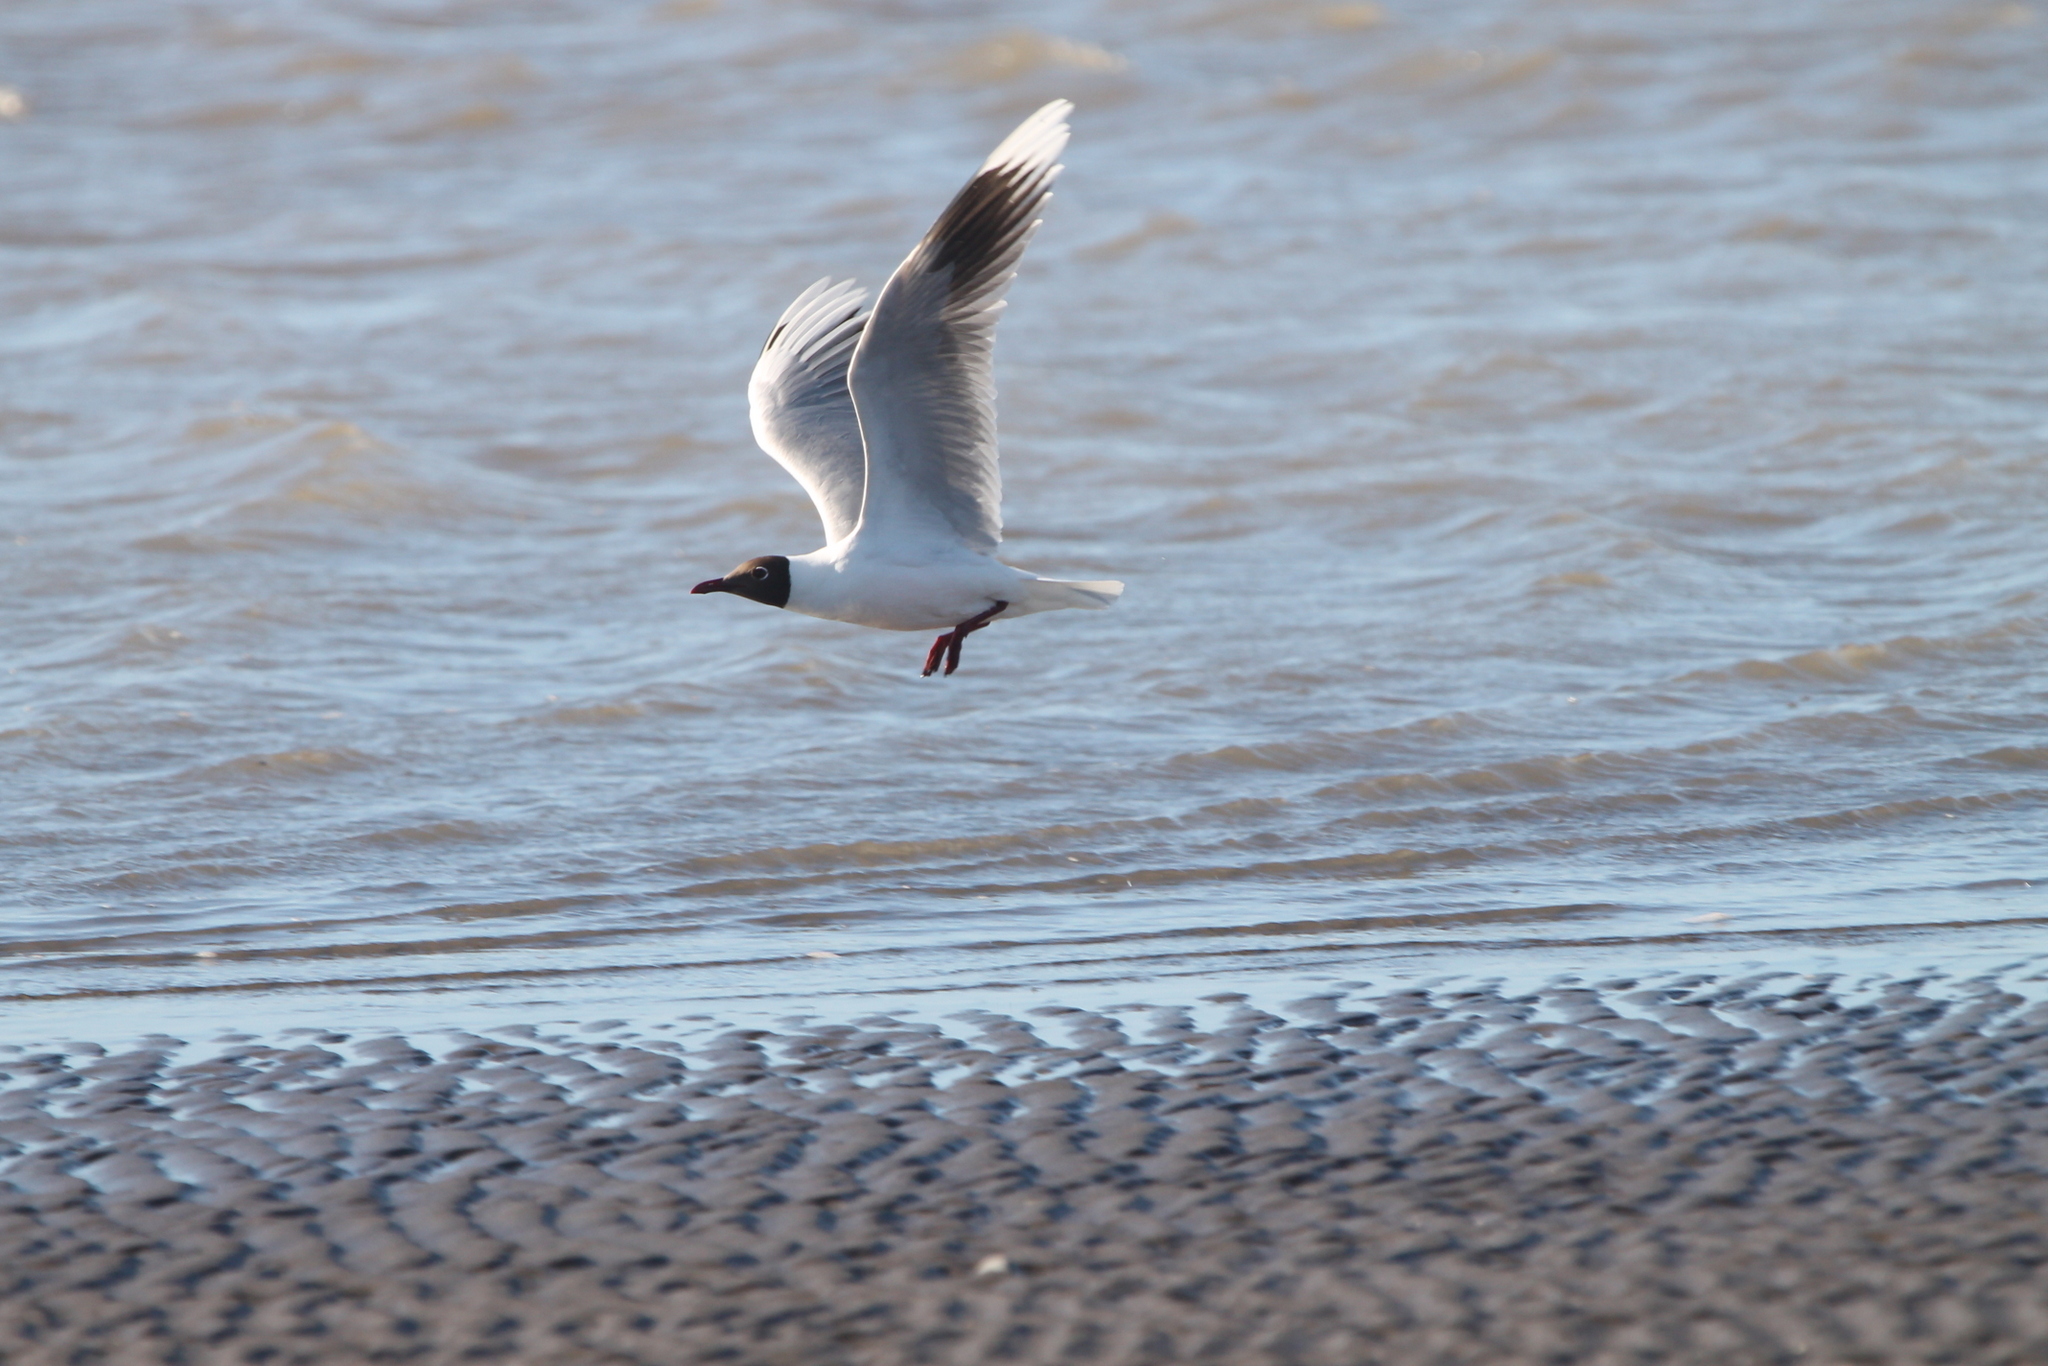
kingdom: Animalia
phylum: Chordata
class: Aves
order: Charadriiformes
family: Laridae
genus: Chroicocephalus
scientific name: Chroicocephalus maculipennis
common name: Brown-hooded gull
